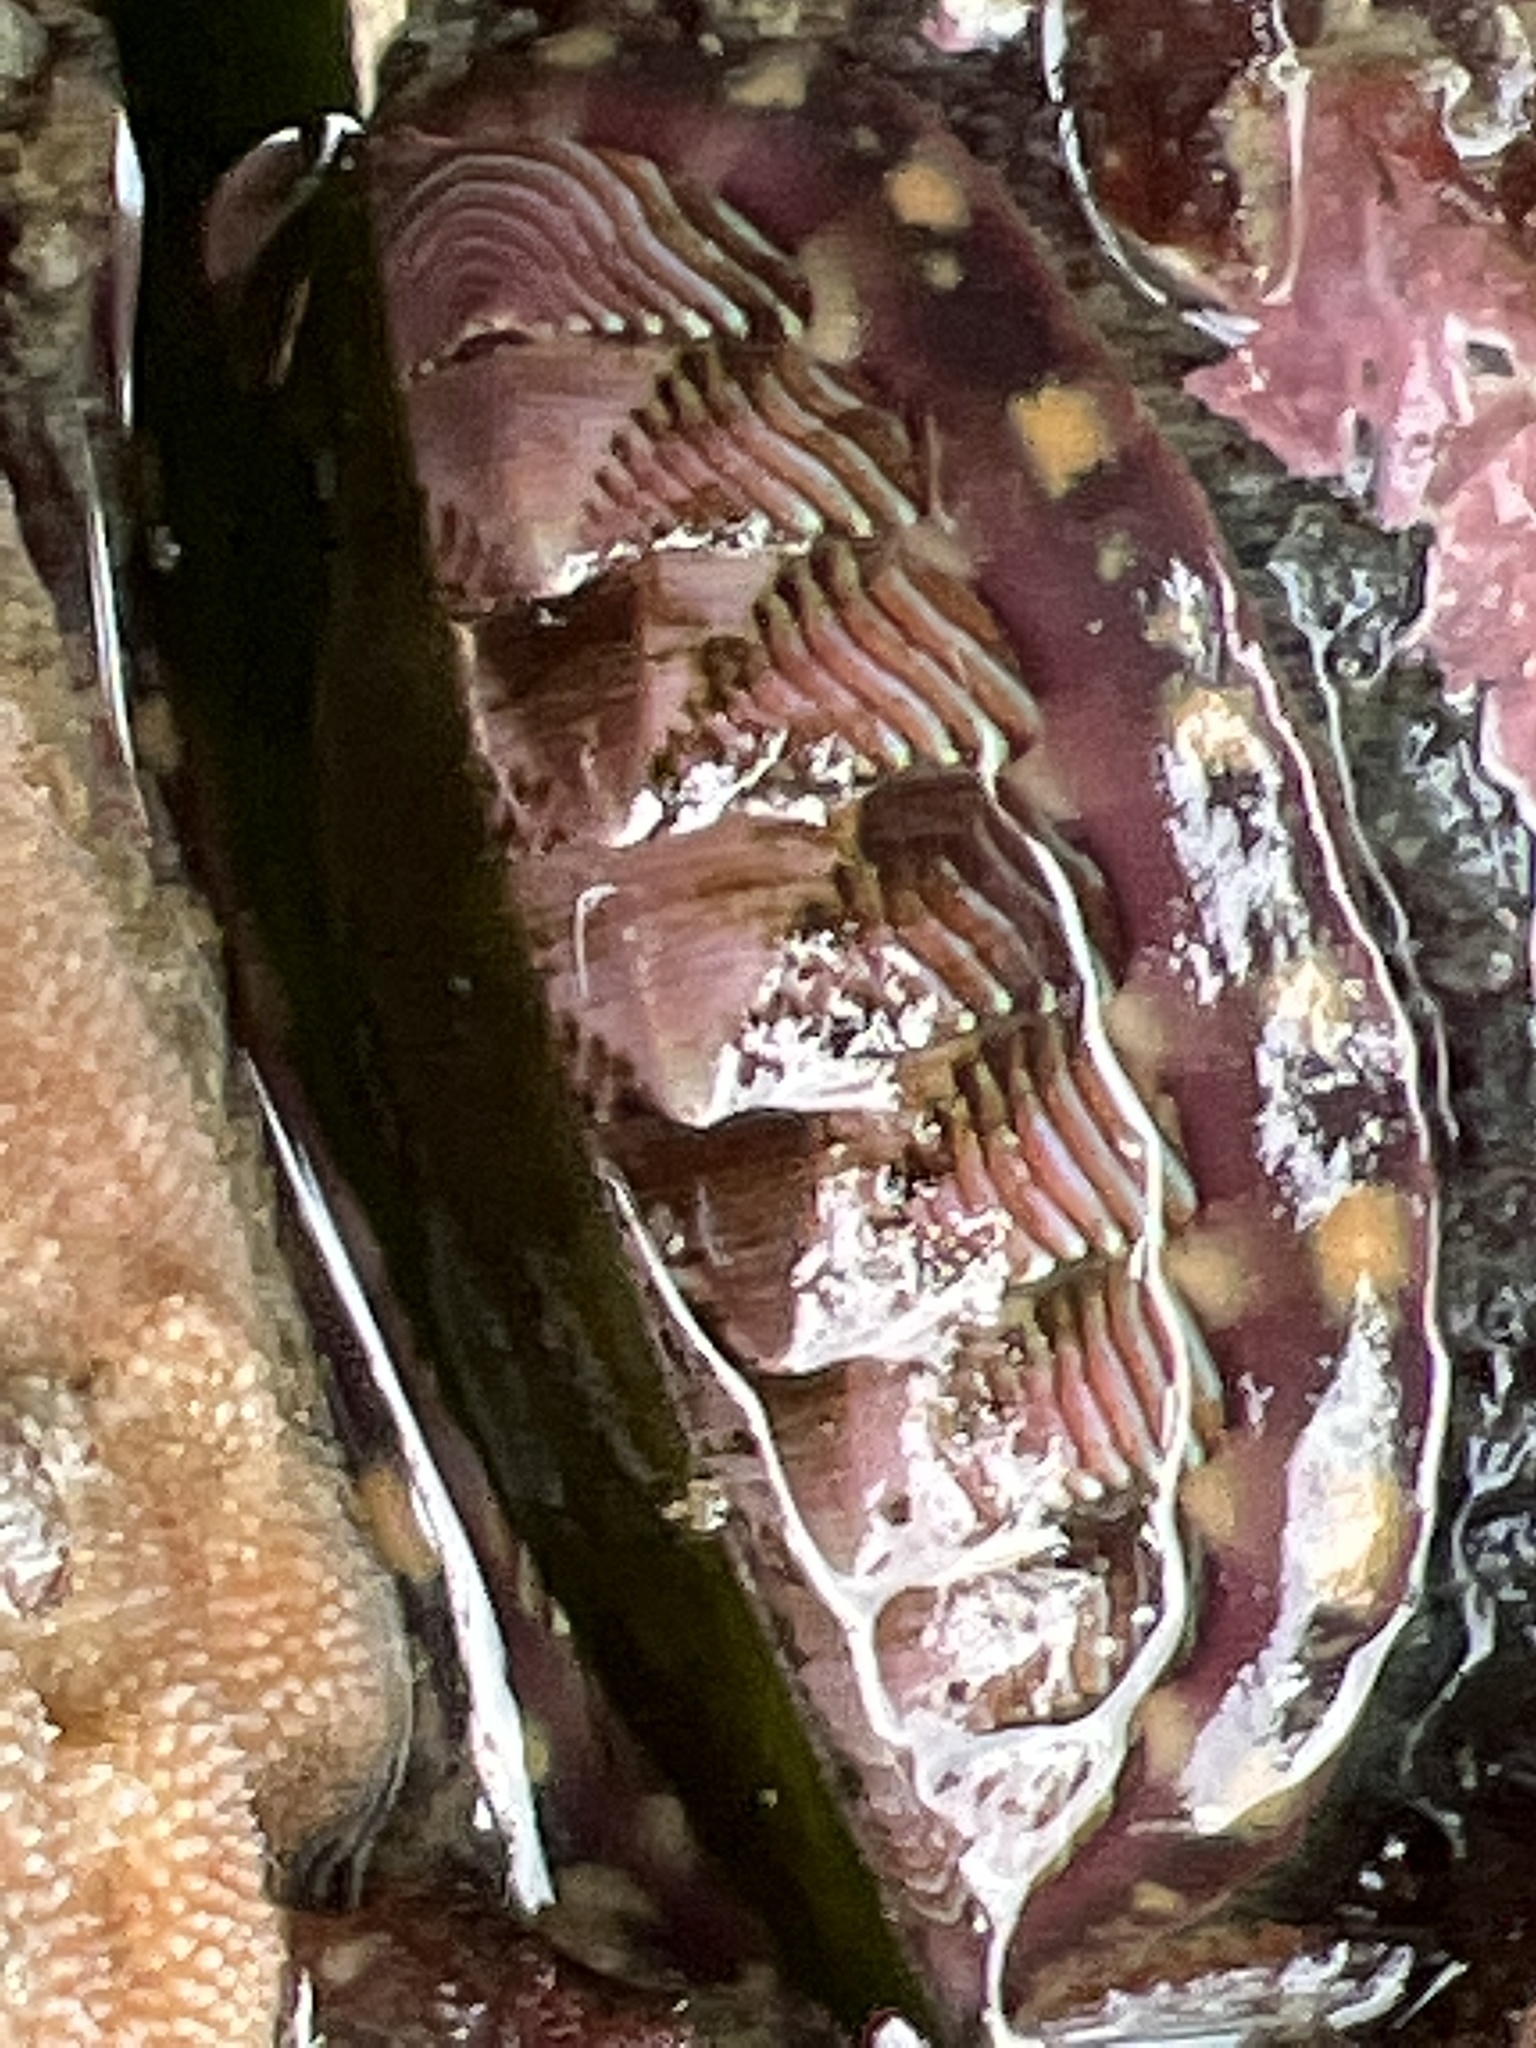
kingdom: Animalia
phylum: Mollusca
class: Polyplacophora
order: Chitonida
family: Tonicellidae
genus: Tonicella
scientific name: Tonicella lineata
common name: Lined chiton
